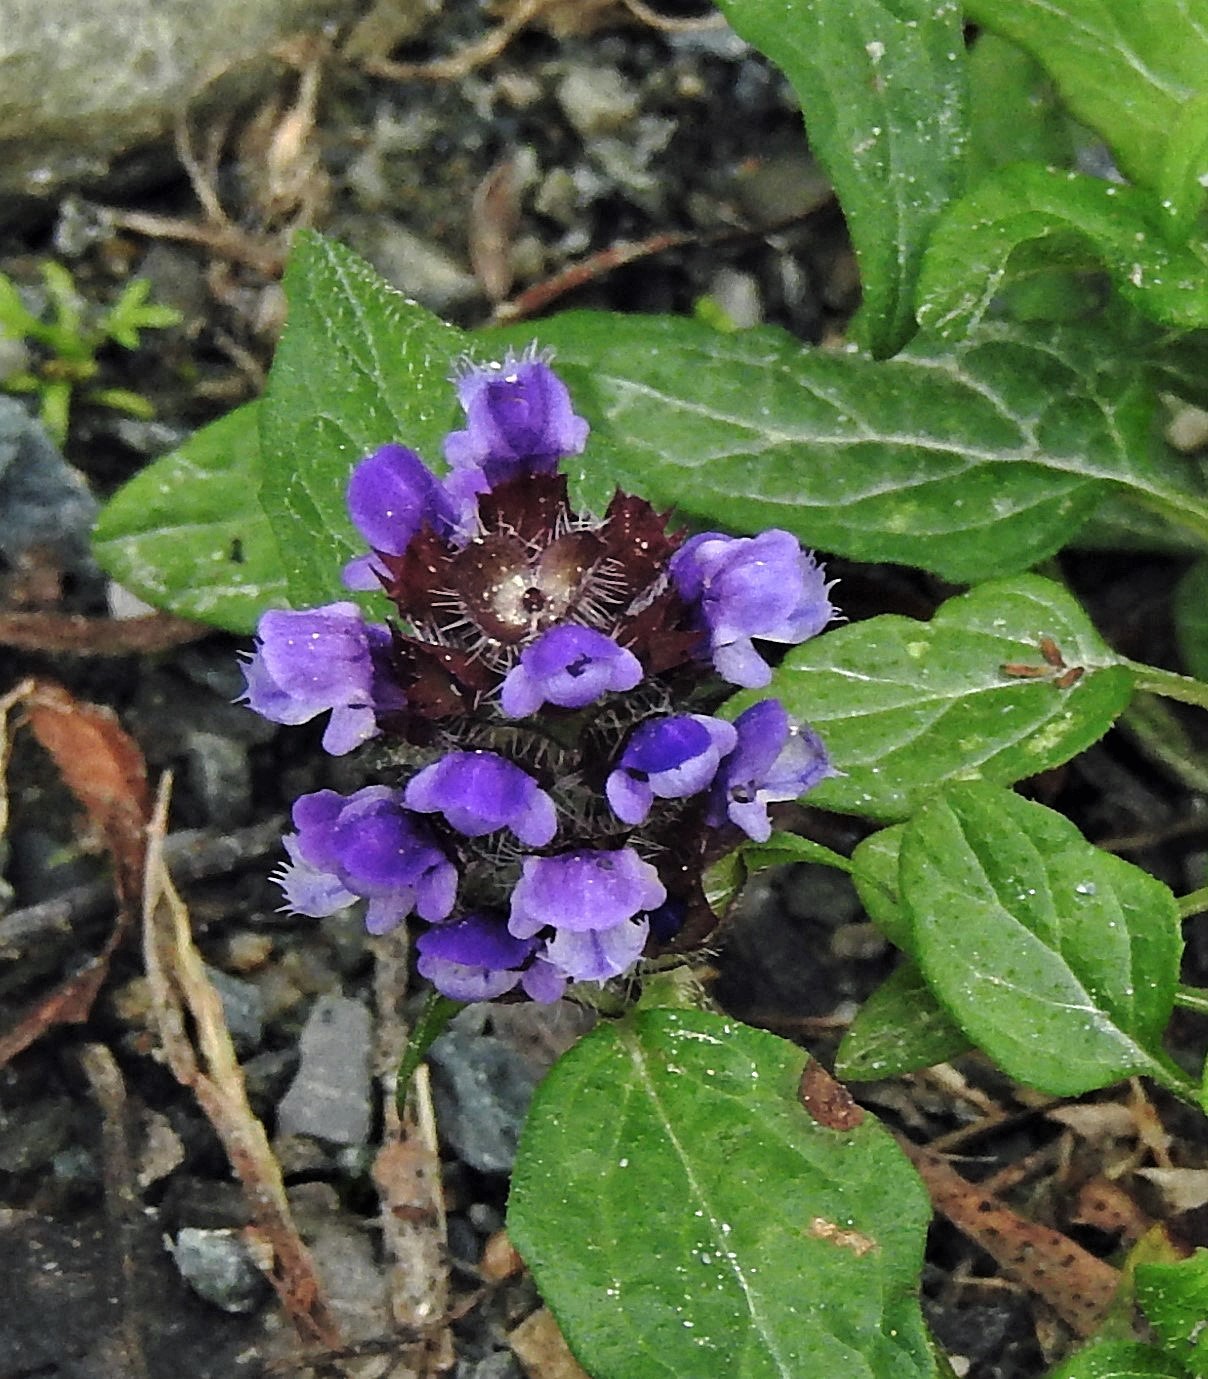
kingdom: Plantae
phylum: Tracheophyta
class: Magnoliopsida
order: Lamiales
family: Lamiaceae
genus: Prunella
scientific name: Prunella vulgaris
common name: Heal-all
